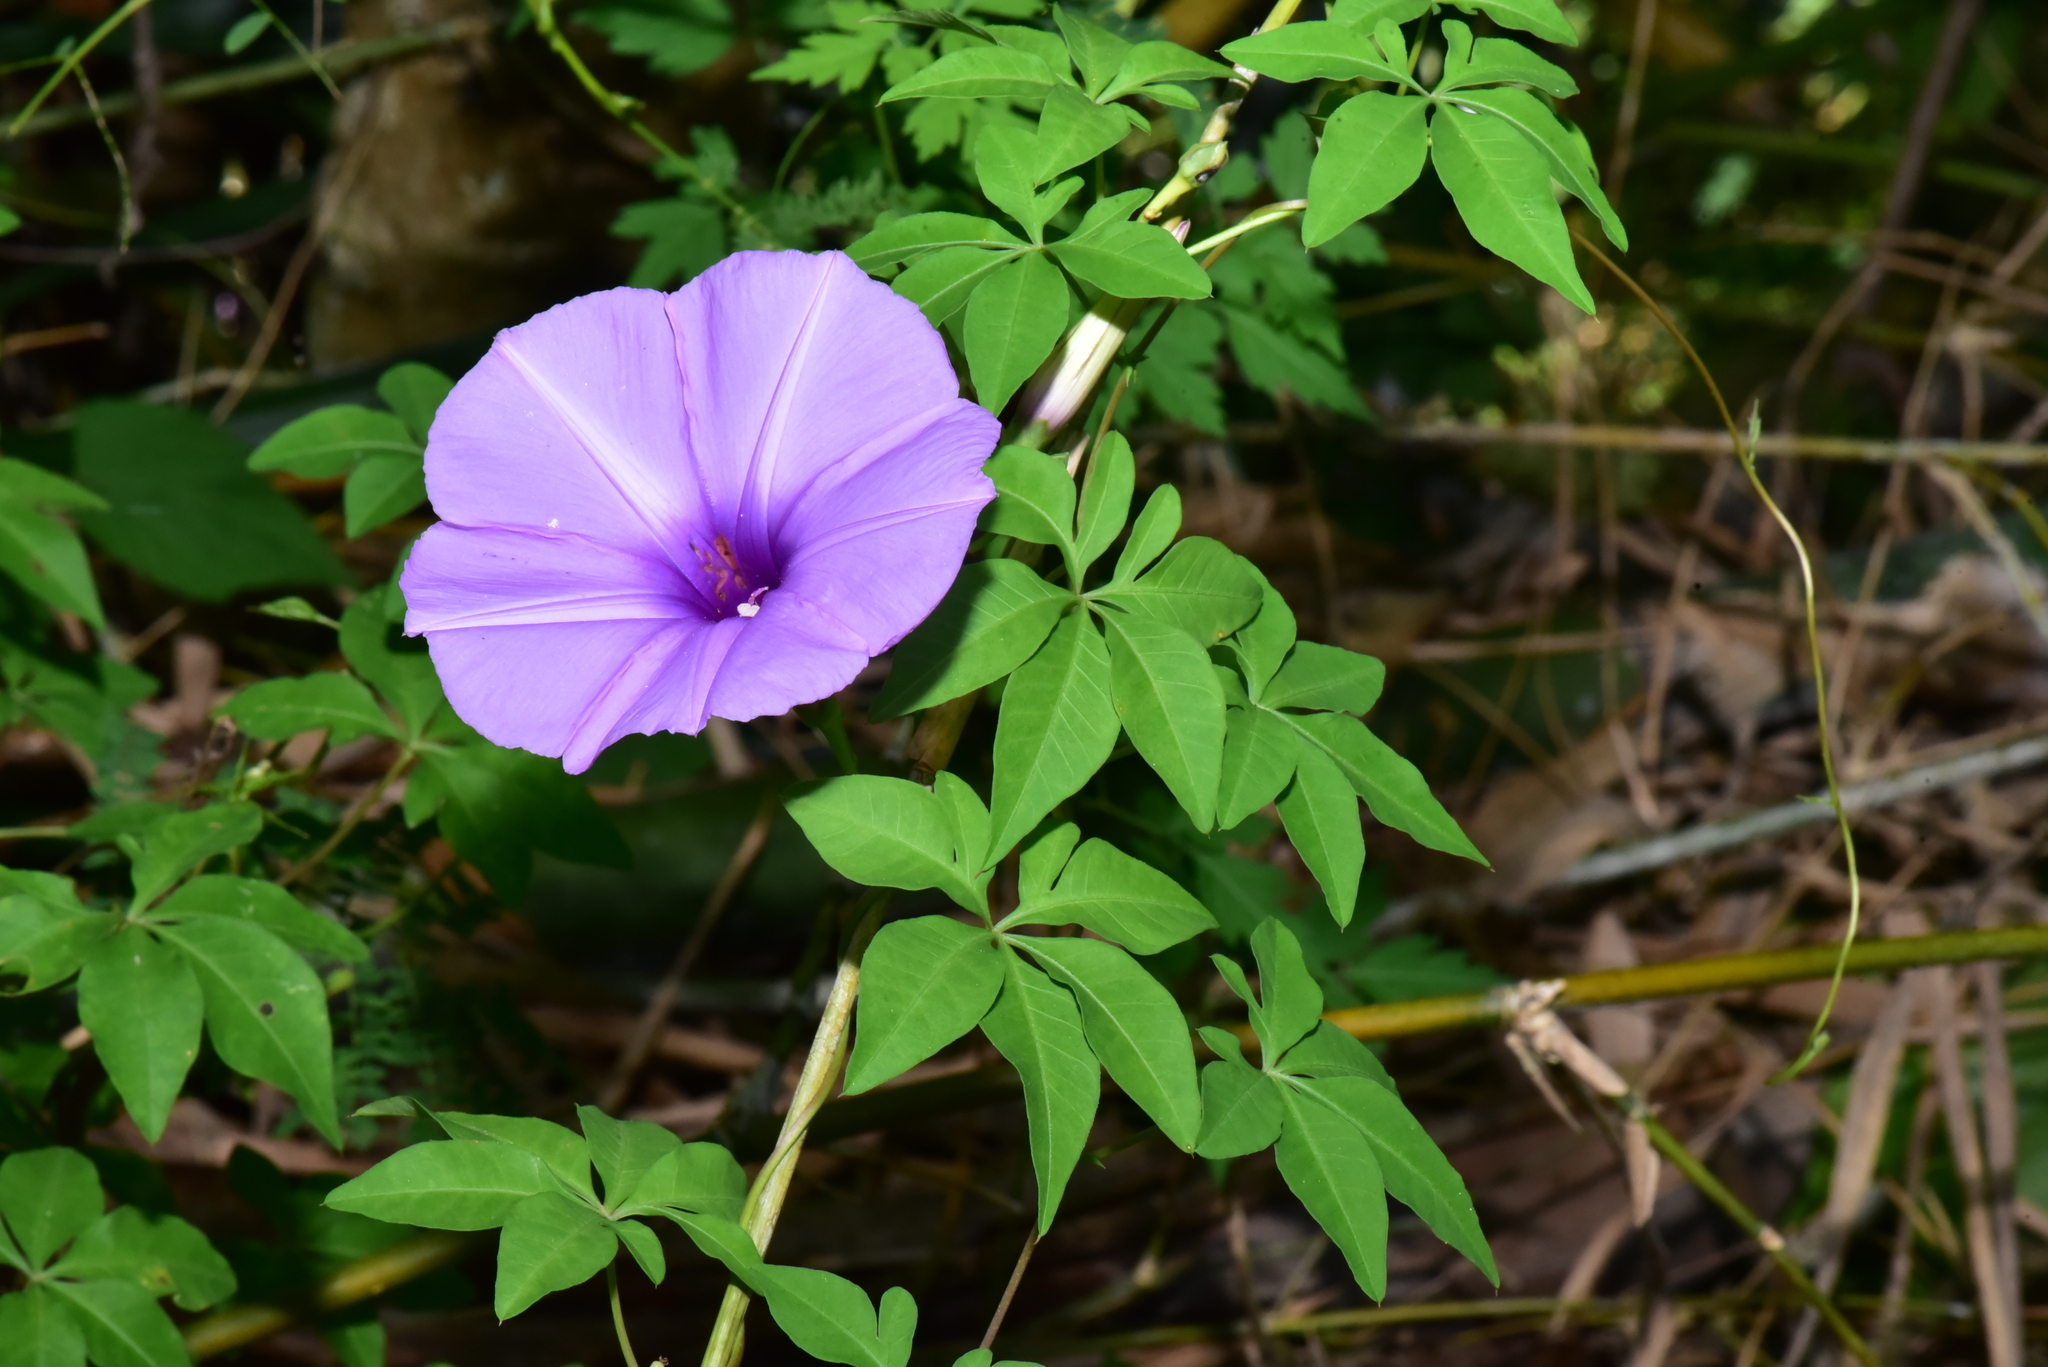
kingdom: Plantae
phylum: Tracheophyta
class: Magnoliopsida
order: Solanales
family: Convolvulaceae
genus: Ipomoea
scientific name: Ipomoea cairica
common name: Mile a minute vine
